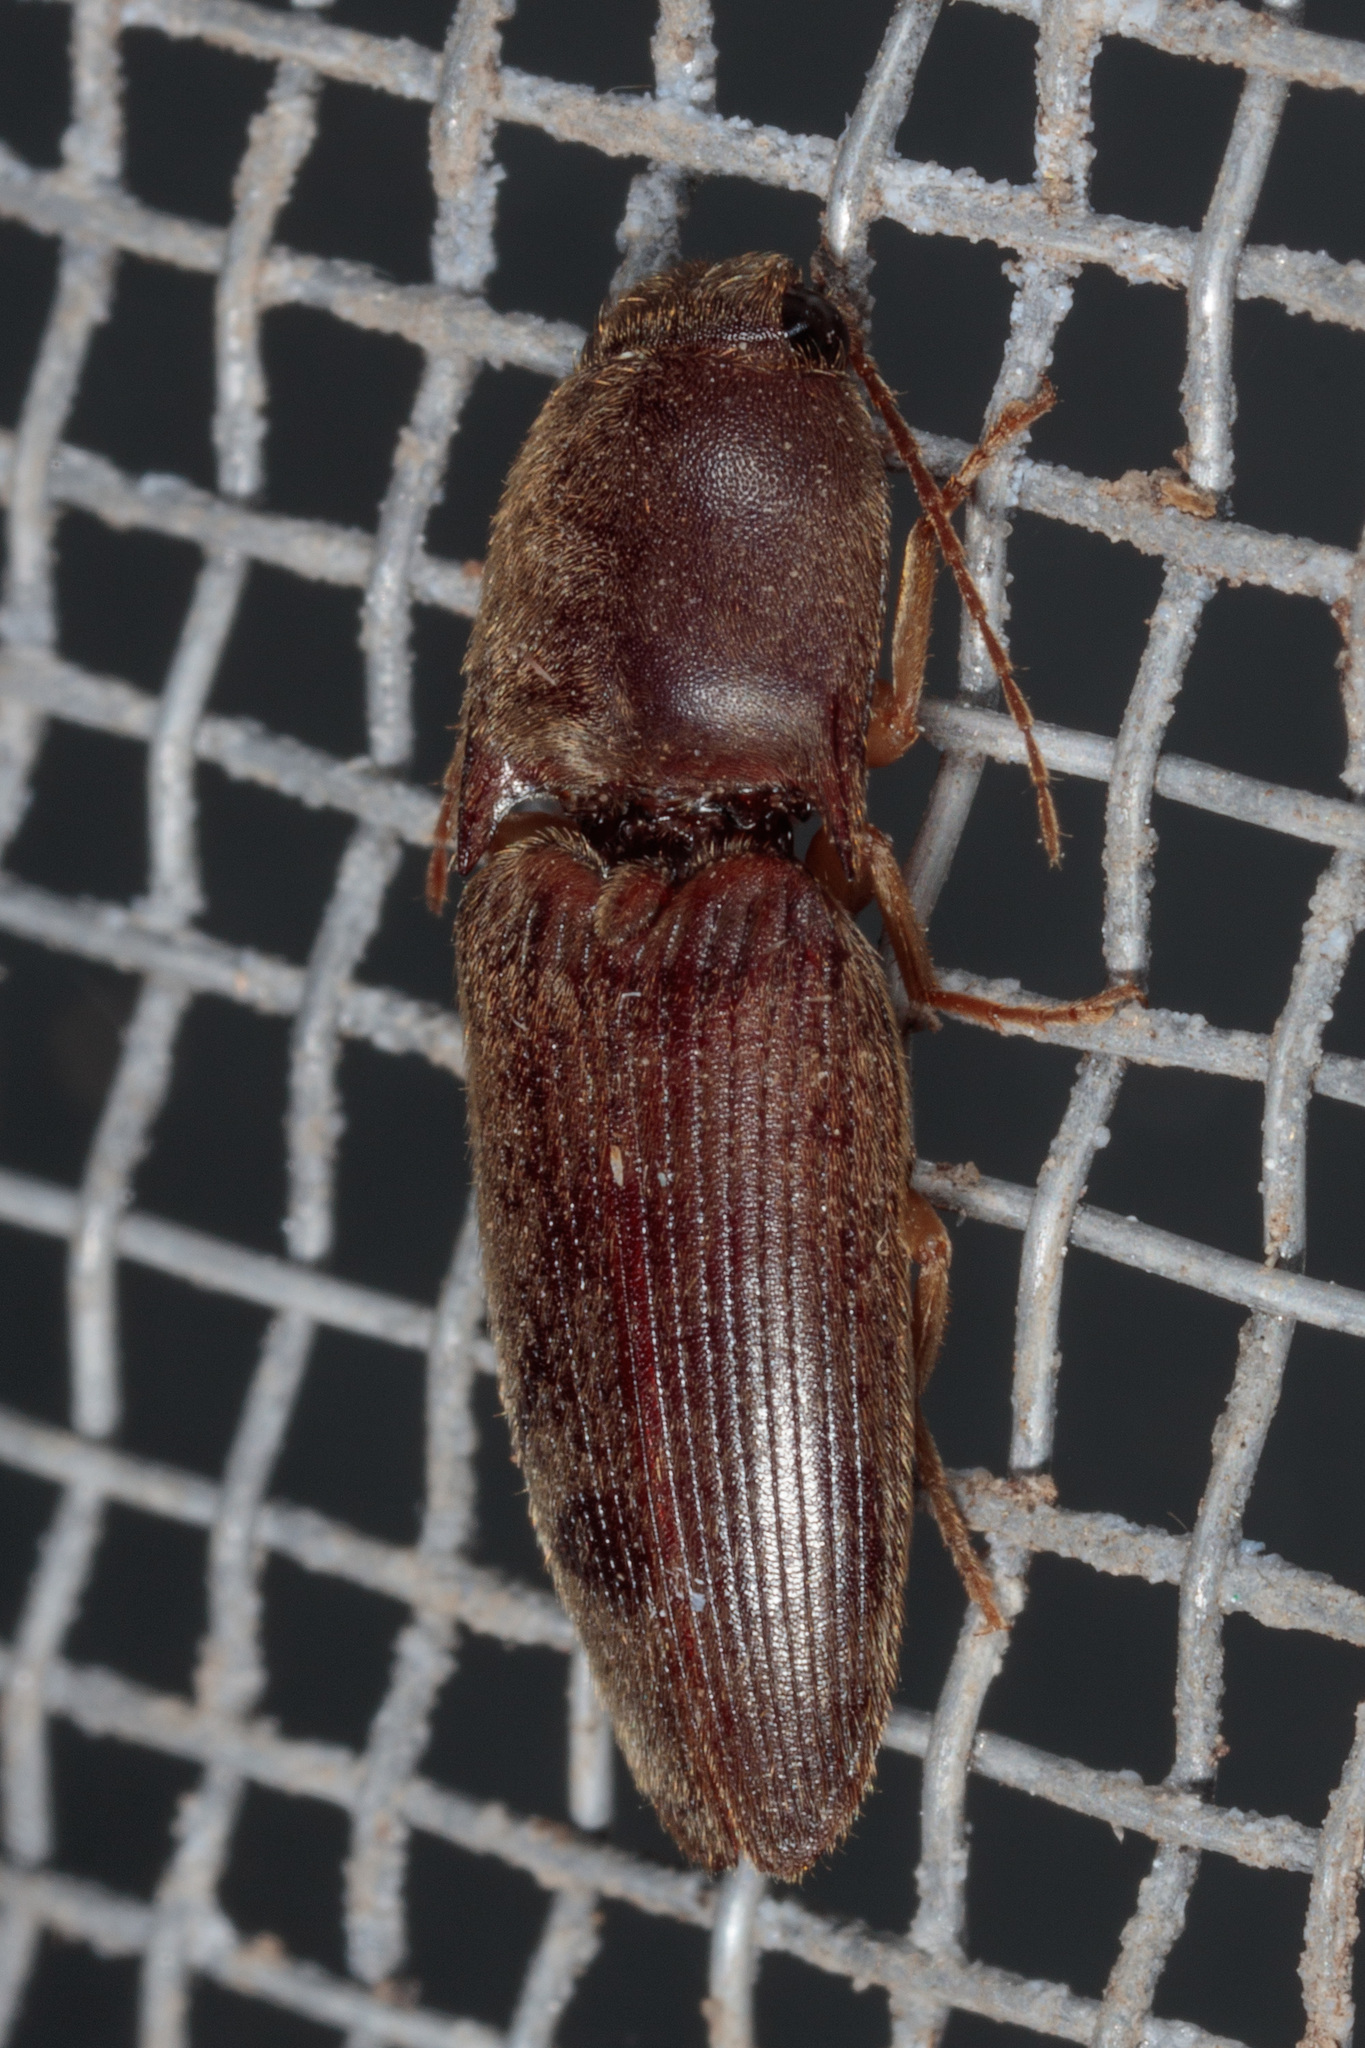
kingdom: Animalia
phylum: Arthropoda
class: Insecta
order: Coleoptera
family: Elateridae
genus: Conoderus
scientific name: Conoderus exsul
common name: Click beetle
